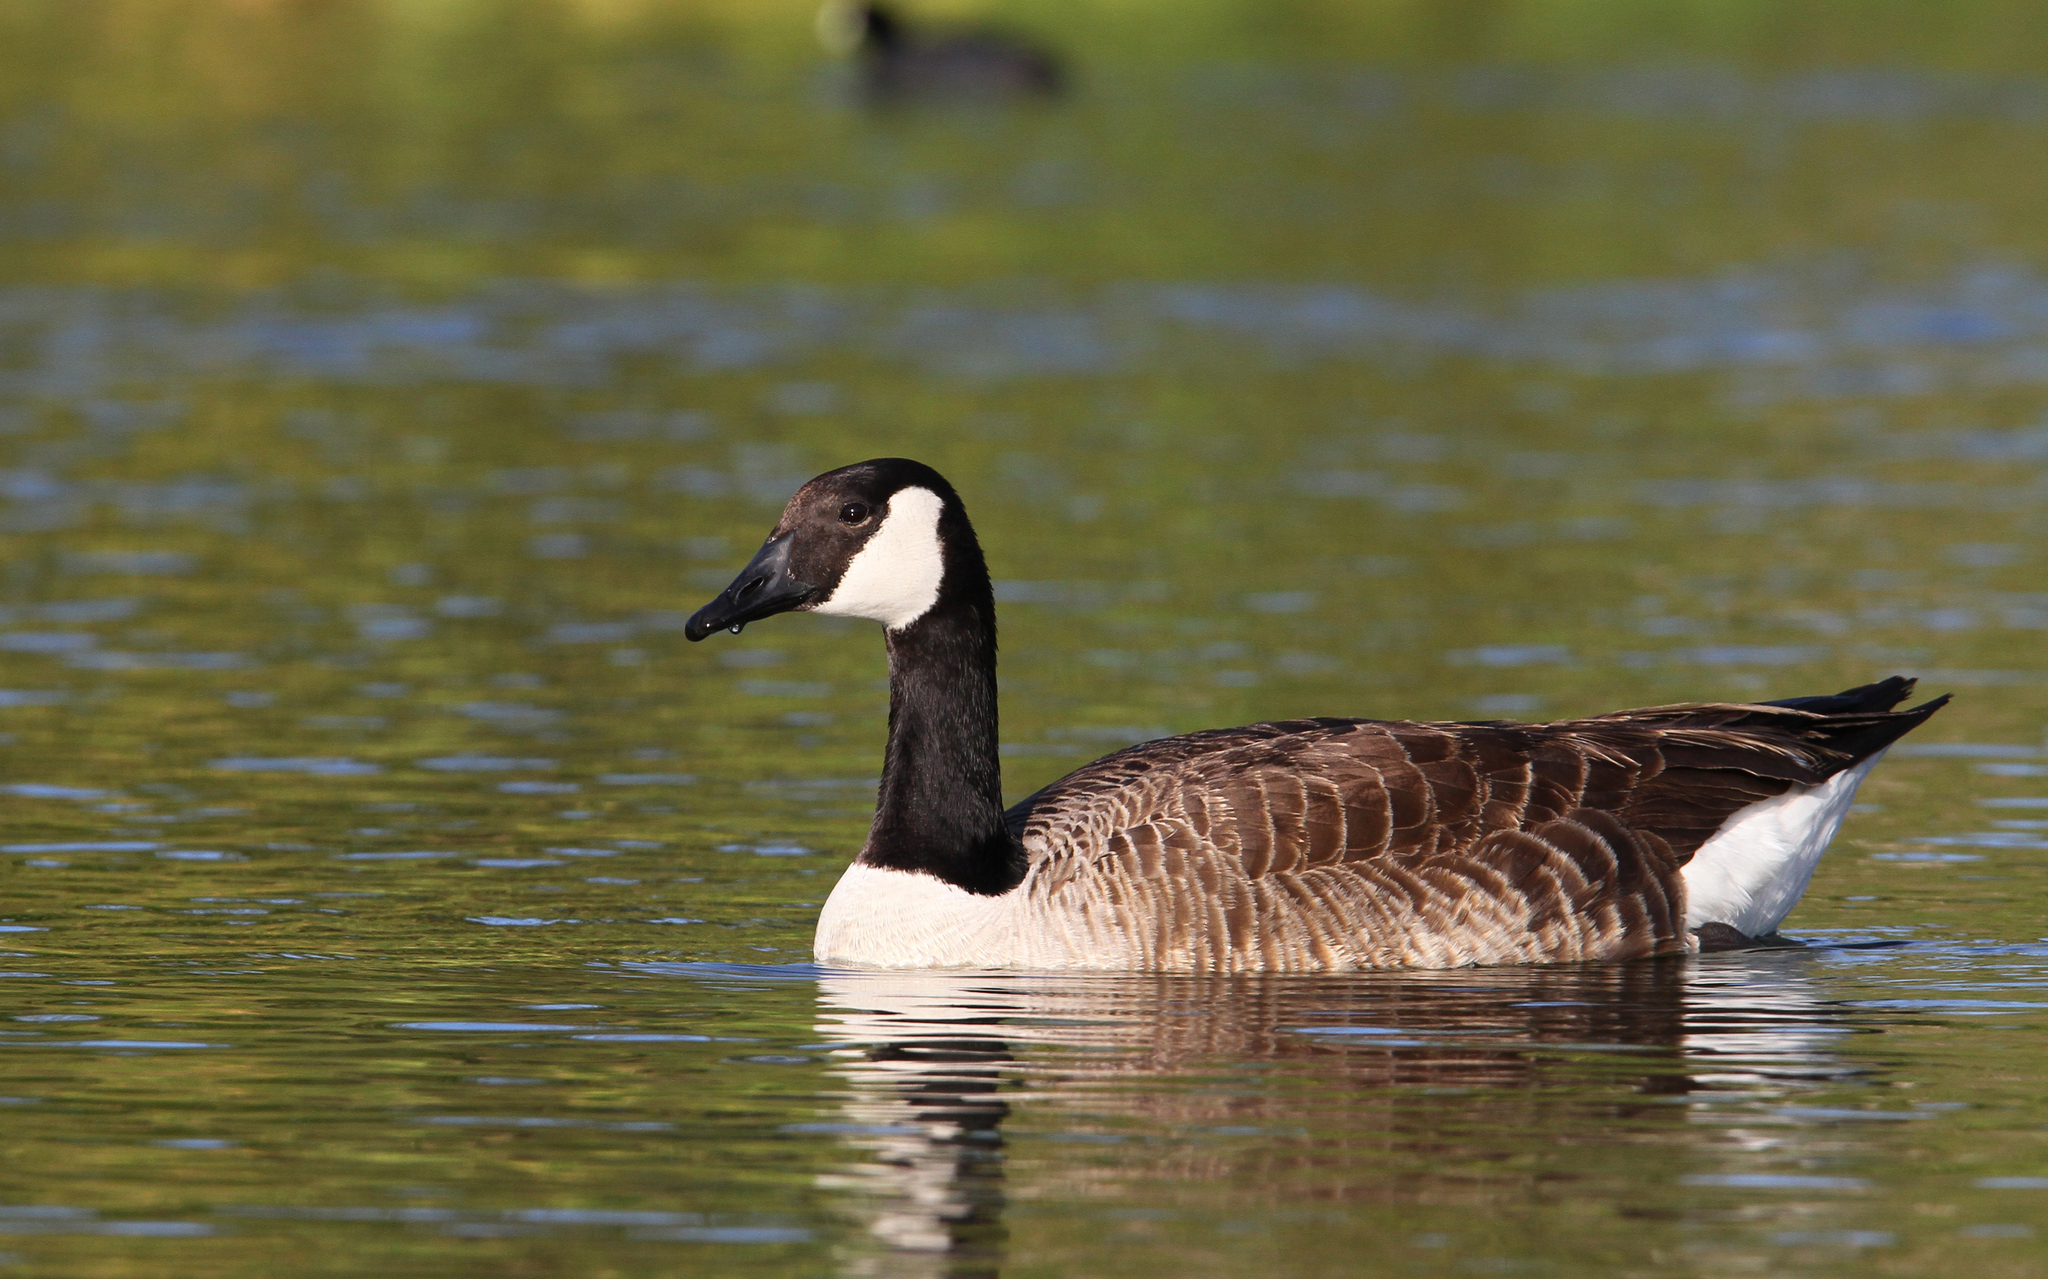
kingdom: Animalia
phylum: Chordata
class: Aves
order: Anseriformes
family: Anatidae
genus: Branta
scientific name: Branta canadensis
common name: Canada goose
